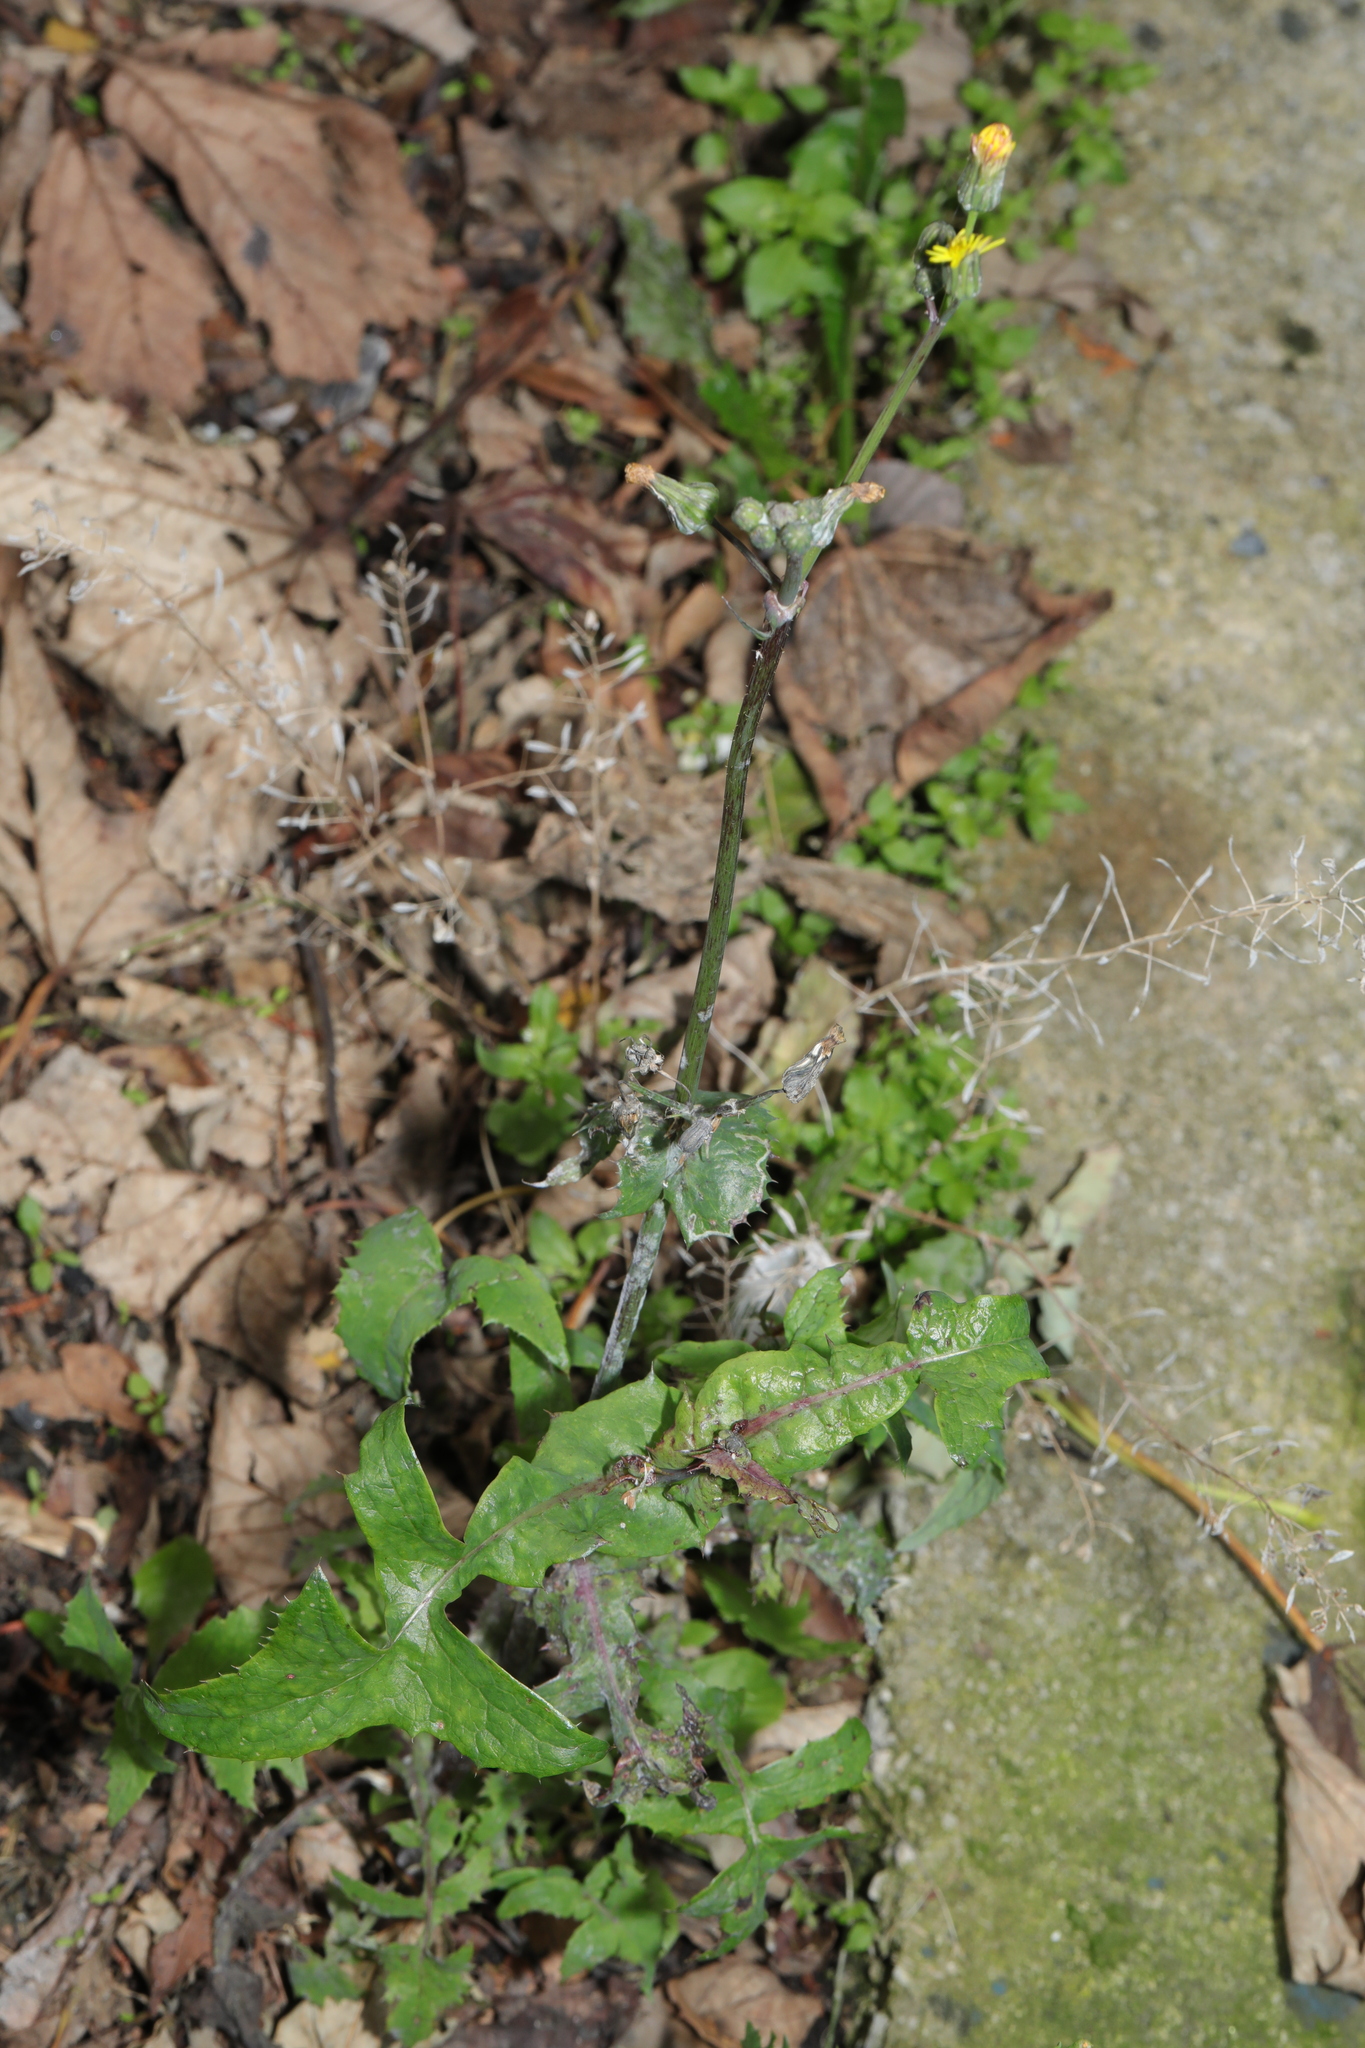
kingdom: Plantae
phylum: Tracheophyta
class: Magnoliopsida
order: Asterales
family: Asteraceae
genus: Sonchus
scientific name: Sonchus oleraceus
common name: Common sowthistle
